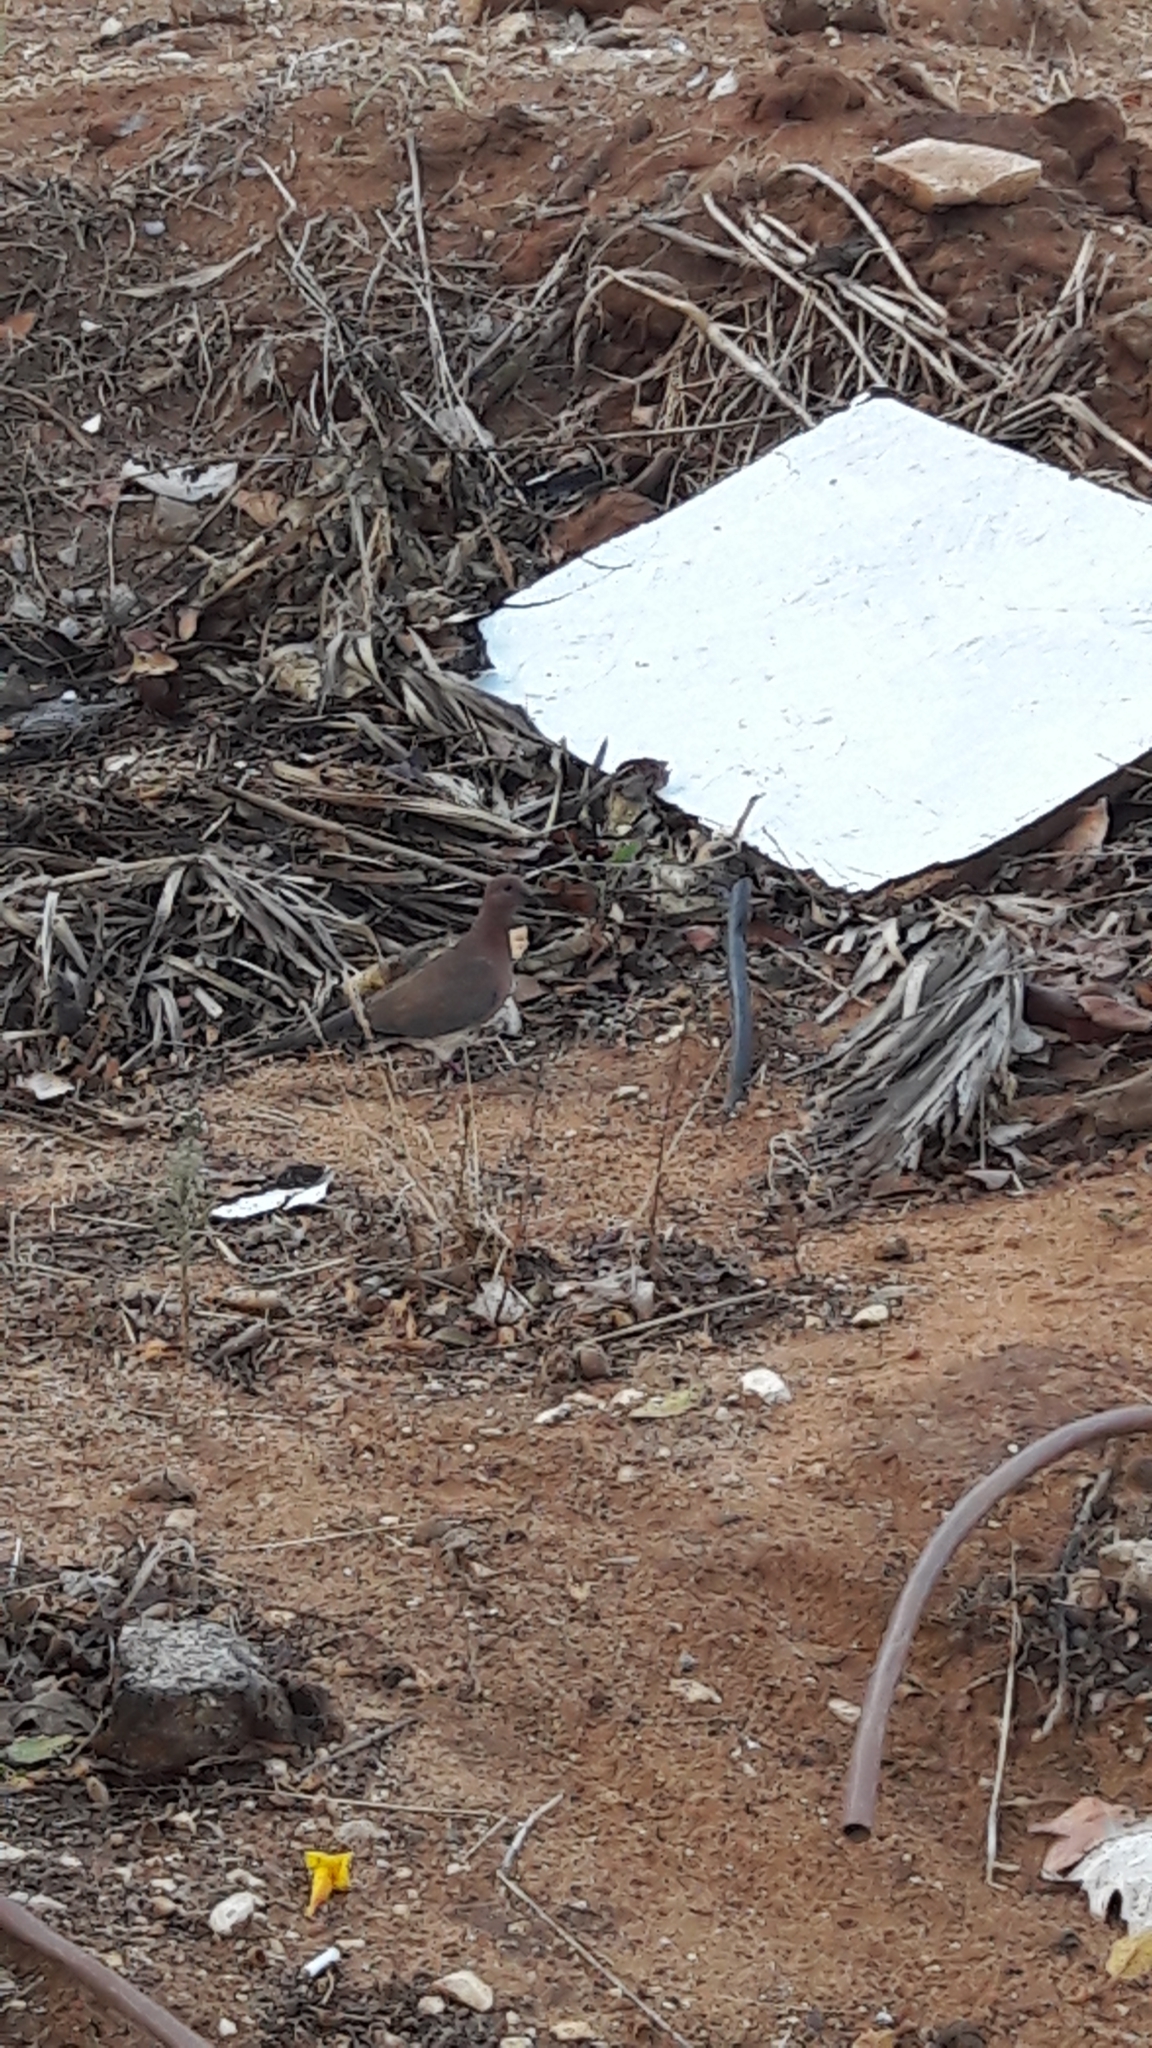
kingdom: Animalia
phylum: Chordata
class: Aves
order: Columbiformes
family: Columbidae
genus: Spilopelia
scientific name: Spilopelia senegalensis
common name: Laughing dove
